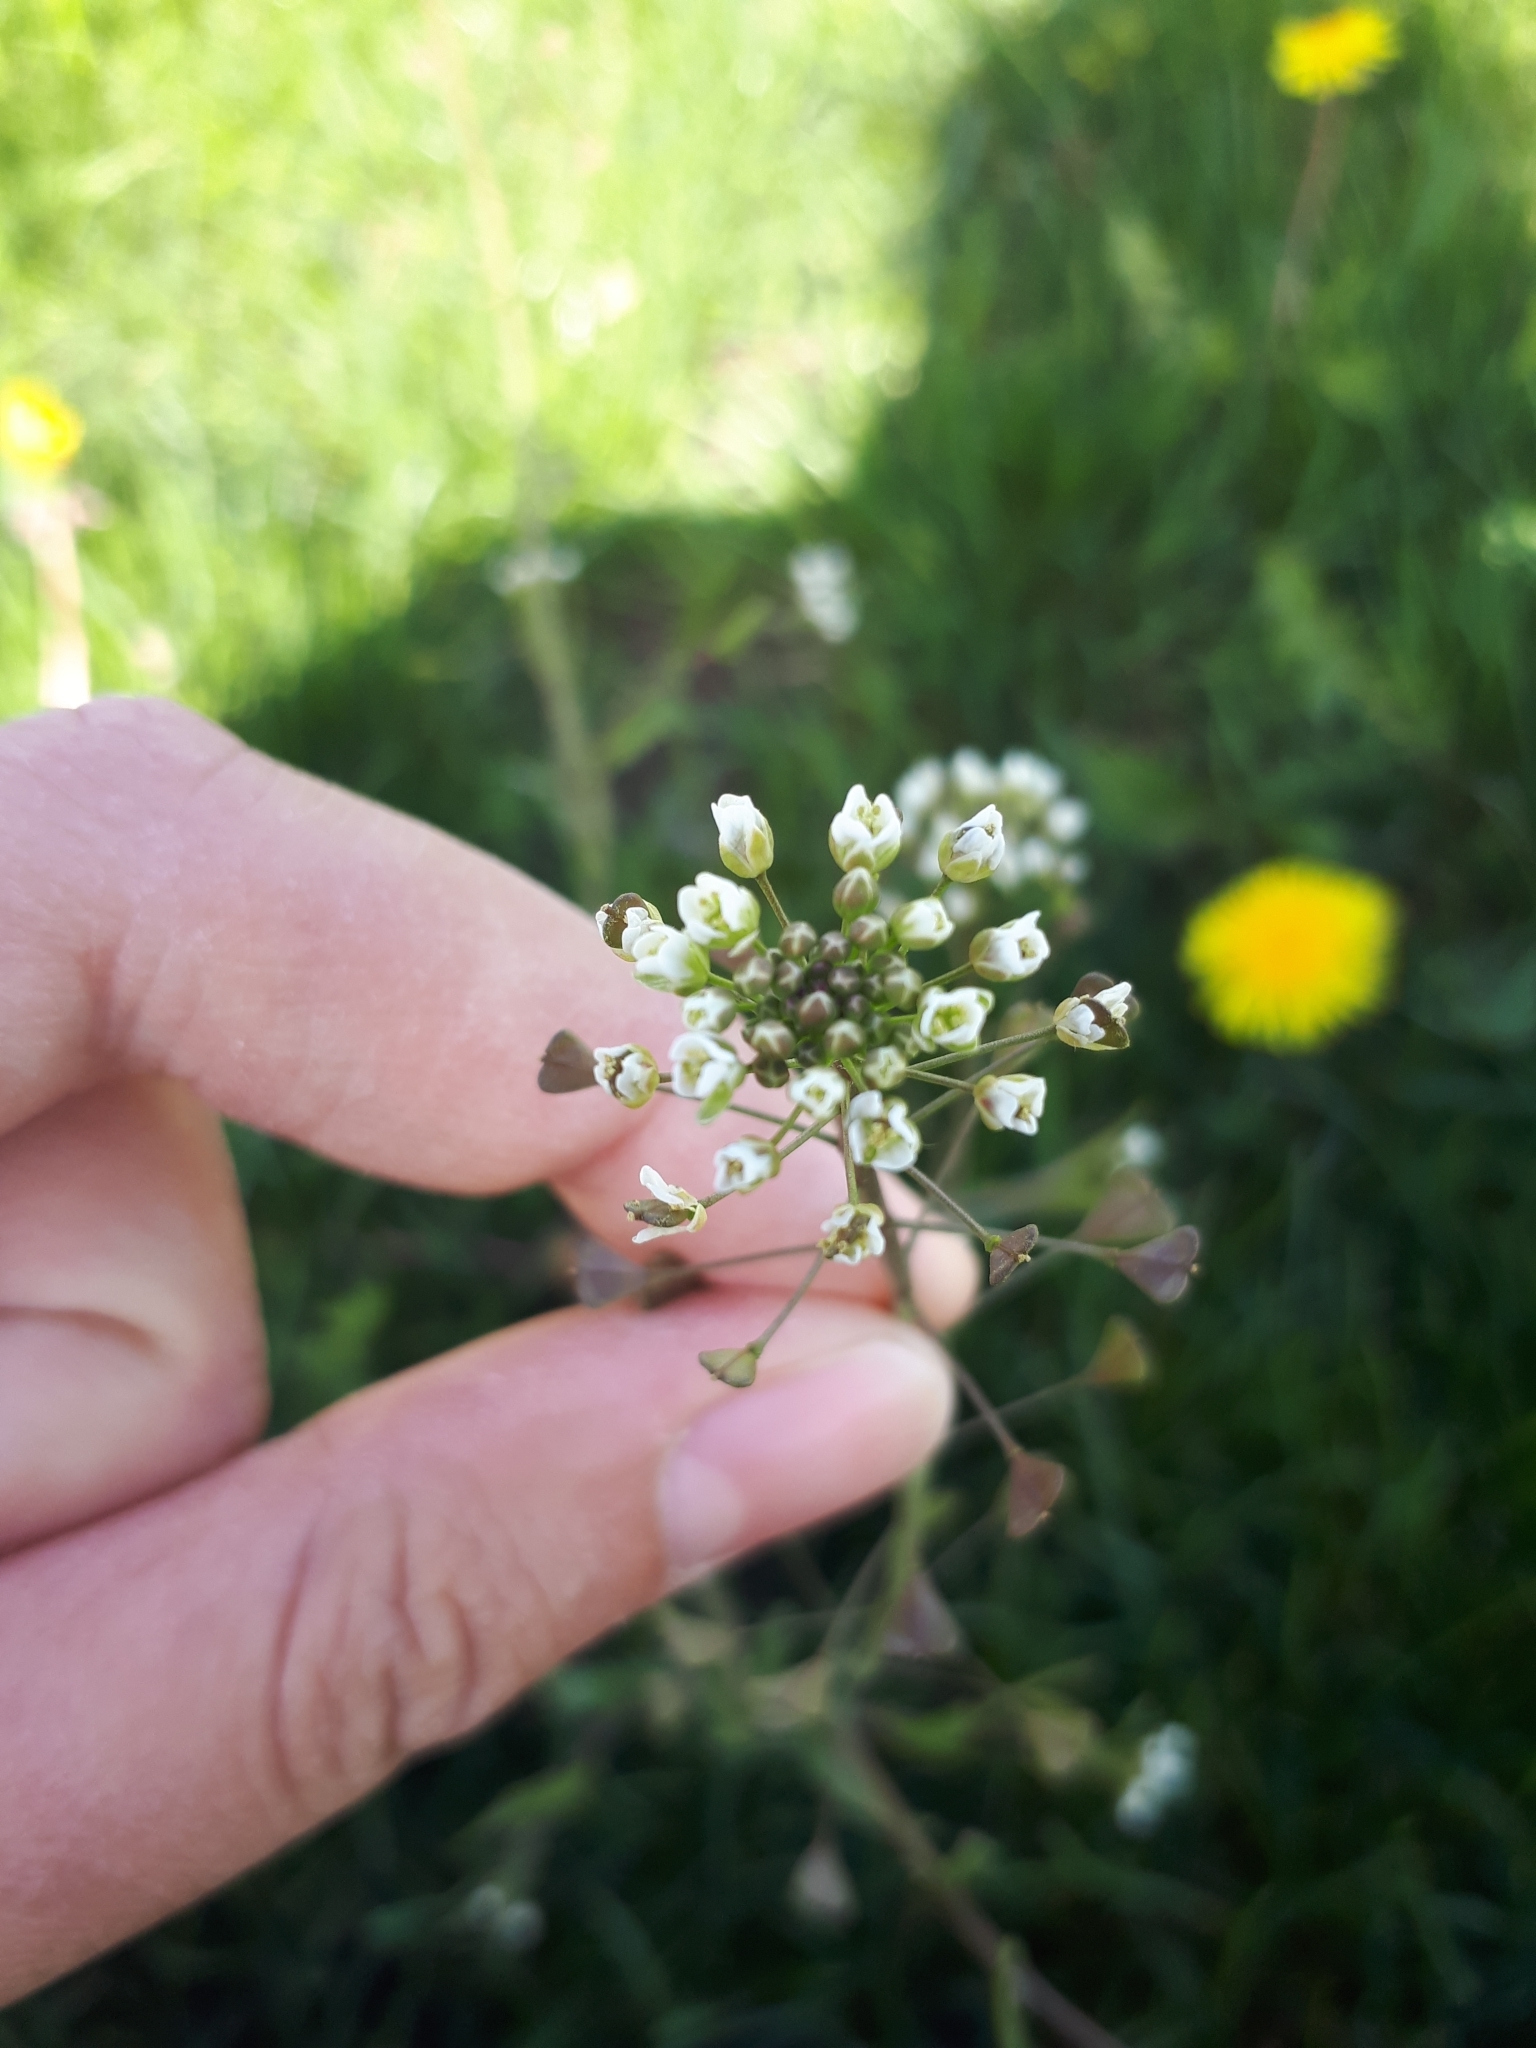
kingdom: Plantae
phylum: Tracheophyta
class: Magnoliopsida
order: Brassicales
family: Brassicaceae
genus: Capsella
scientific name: Capsella bursa-pastoris
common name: Shepherd's purse
